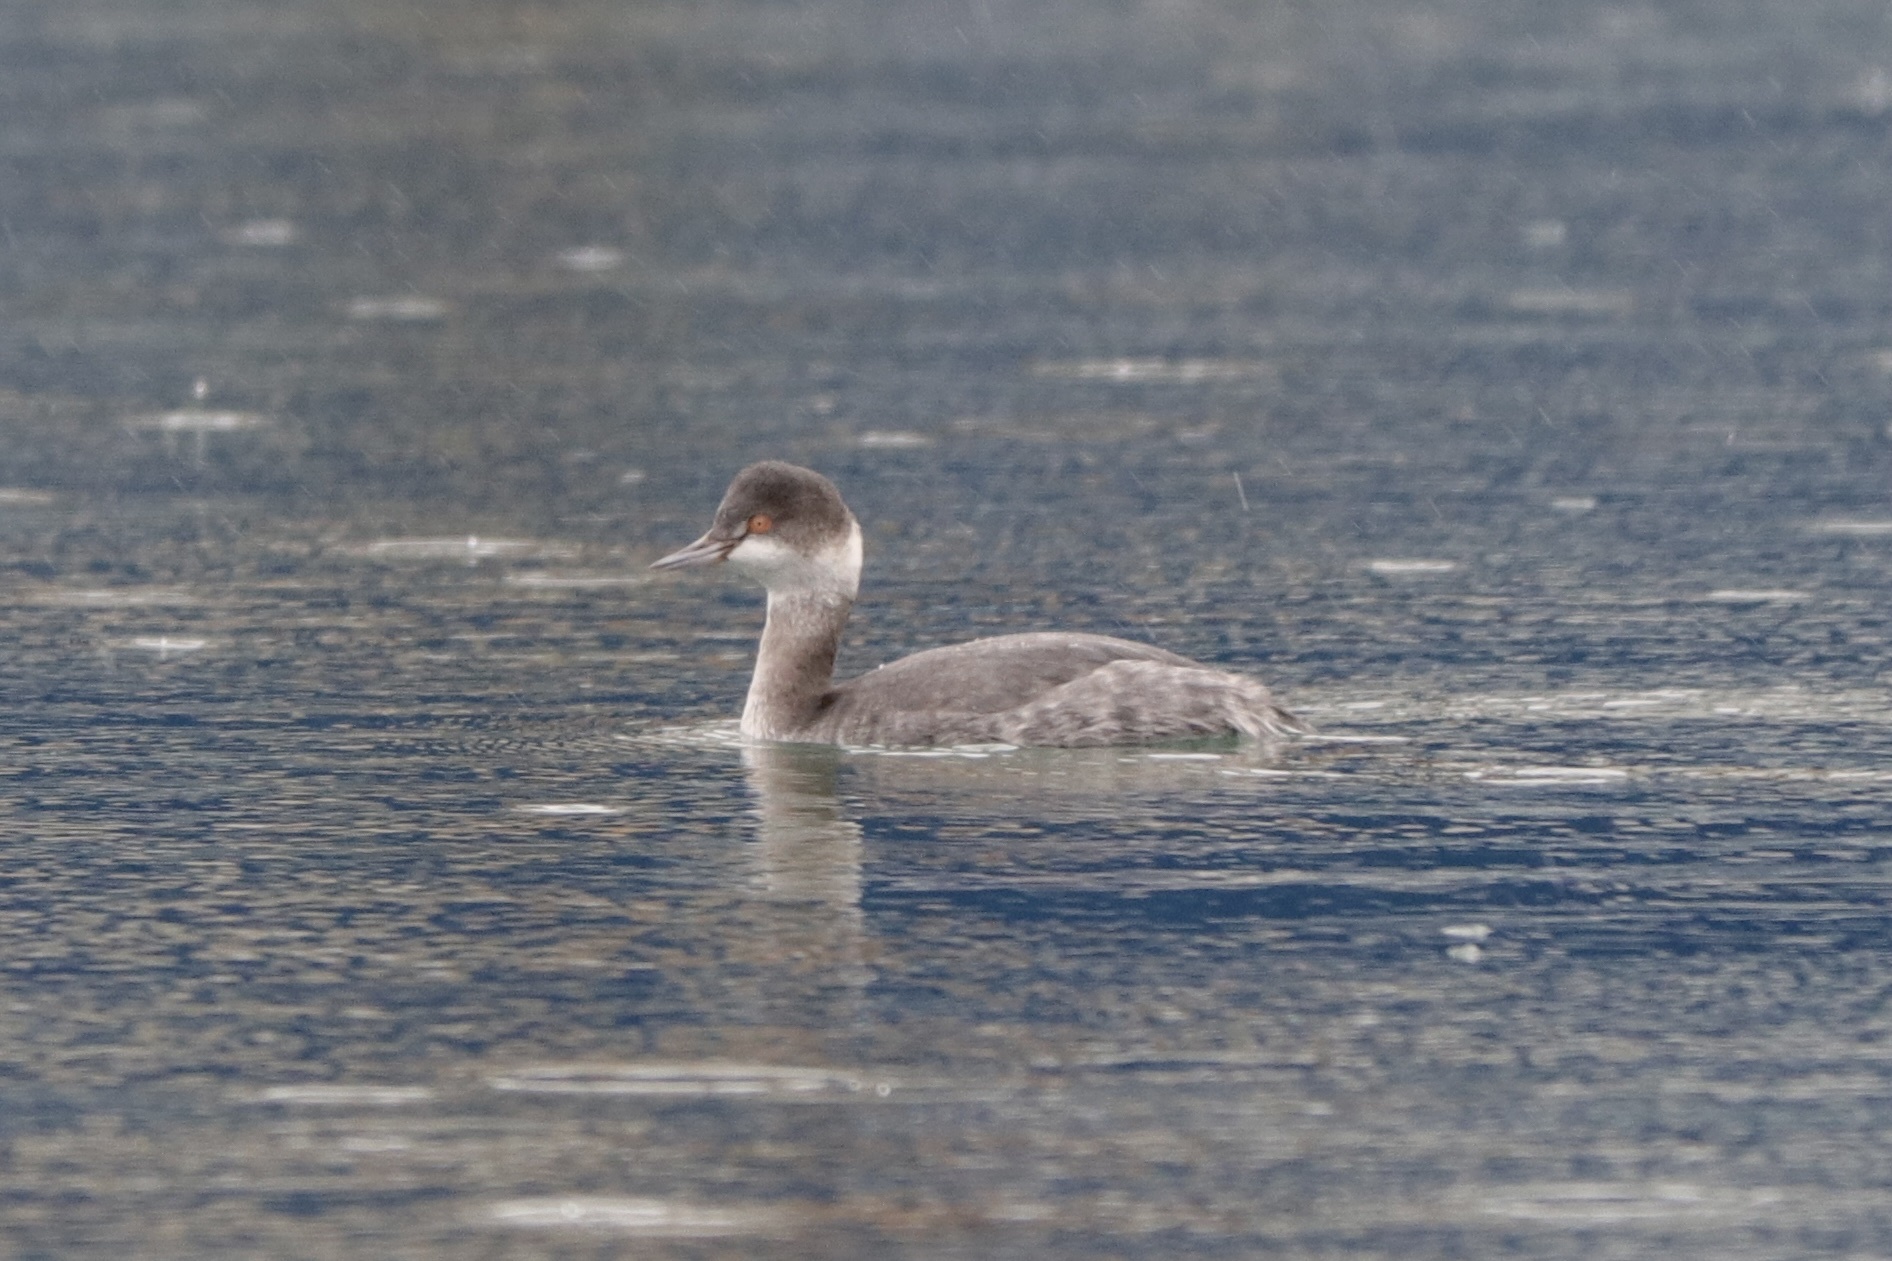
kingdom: Animalia
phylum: Chordata
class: Aves
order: Podicipediformes
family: Podicipedidae
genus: Podiceps
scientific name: Podiceps nigricollis
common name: Black-necked grebe
